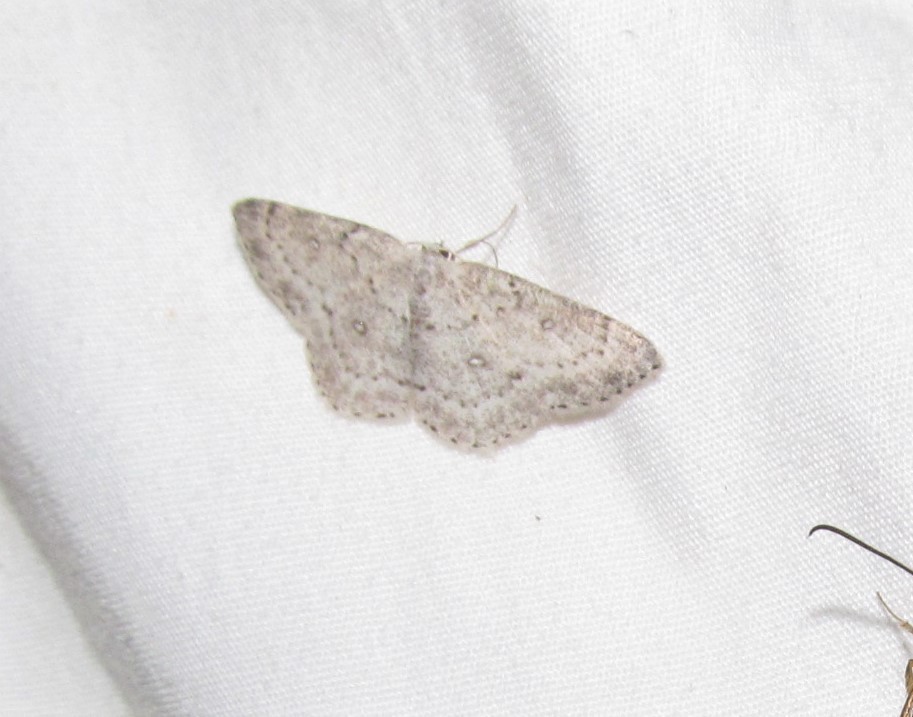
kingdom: Animalia
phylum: Arthropoda
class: Insecta
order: Lepidoptera
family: Geometridae
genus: Cyclophora
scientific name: Cyclophora pendulinaria
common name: Sweet fern geometer
